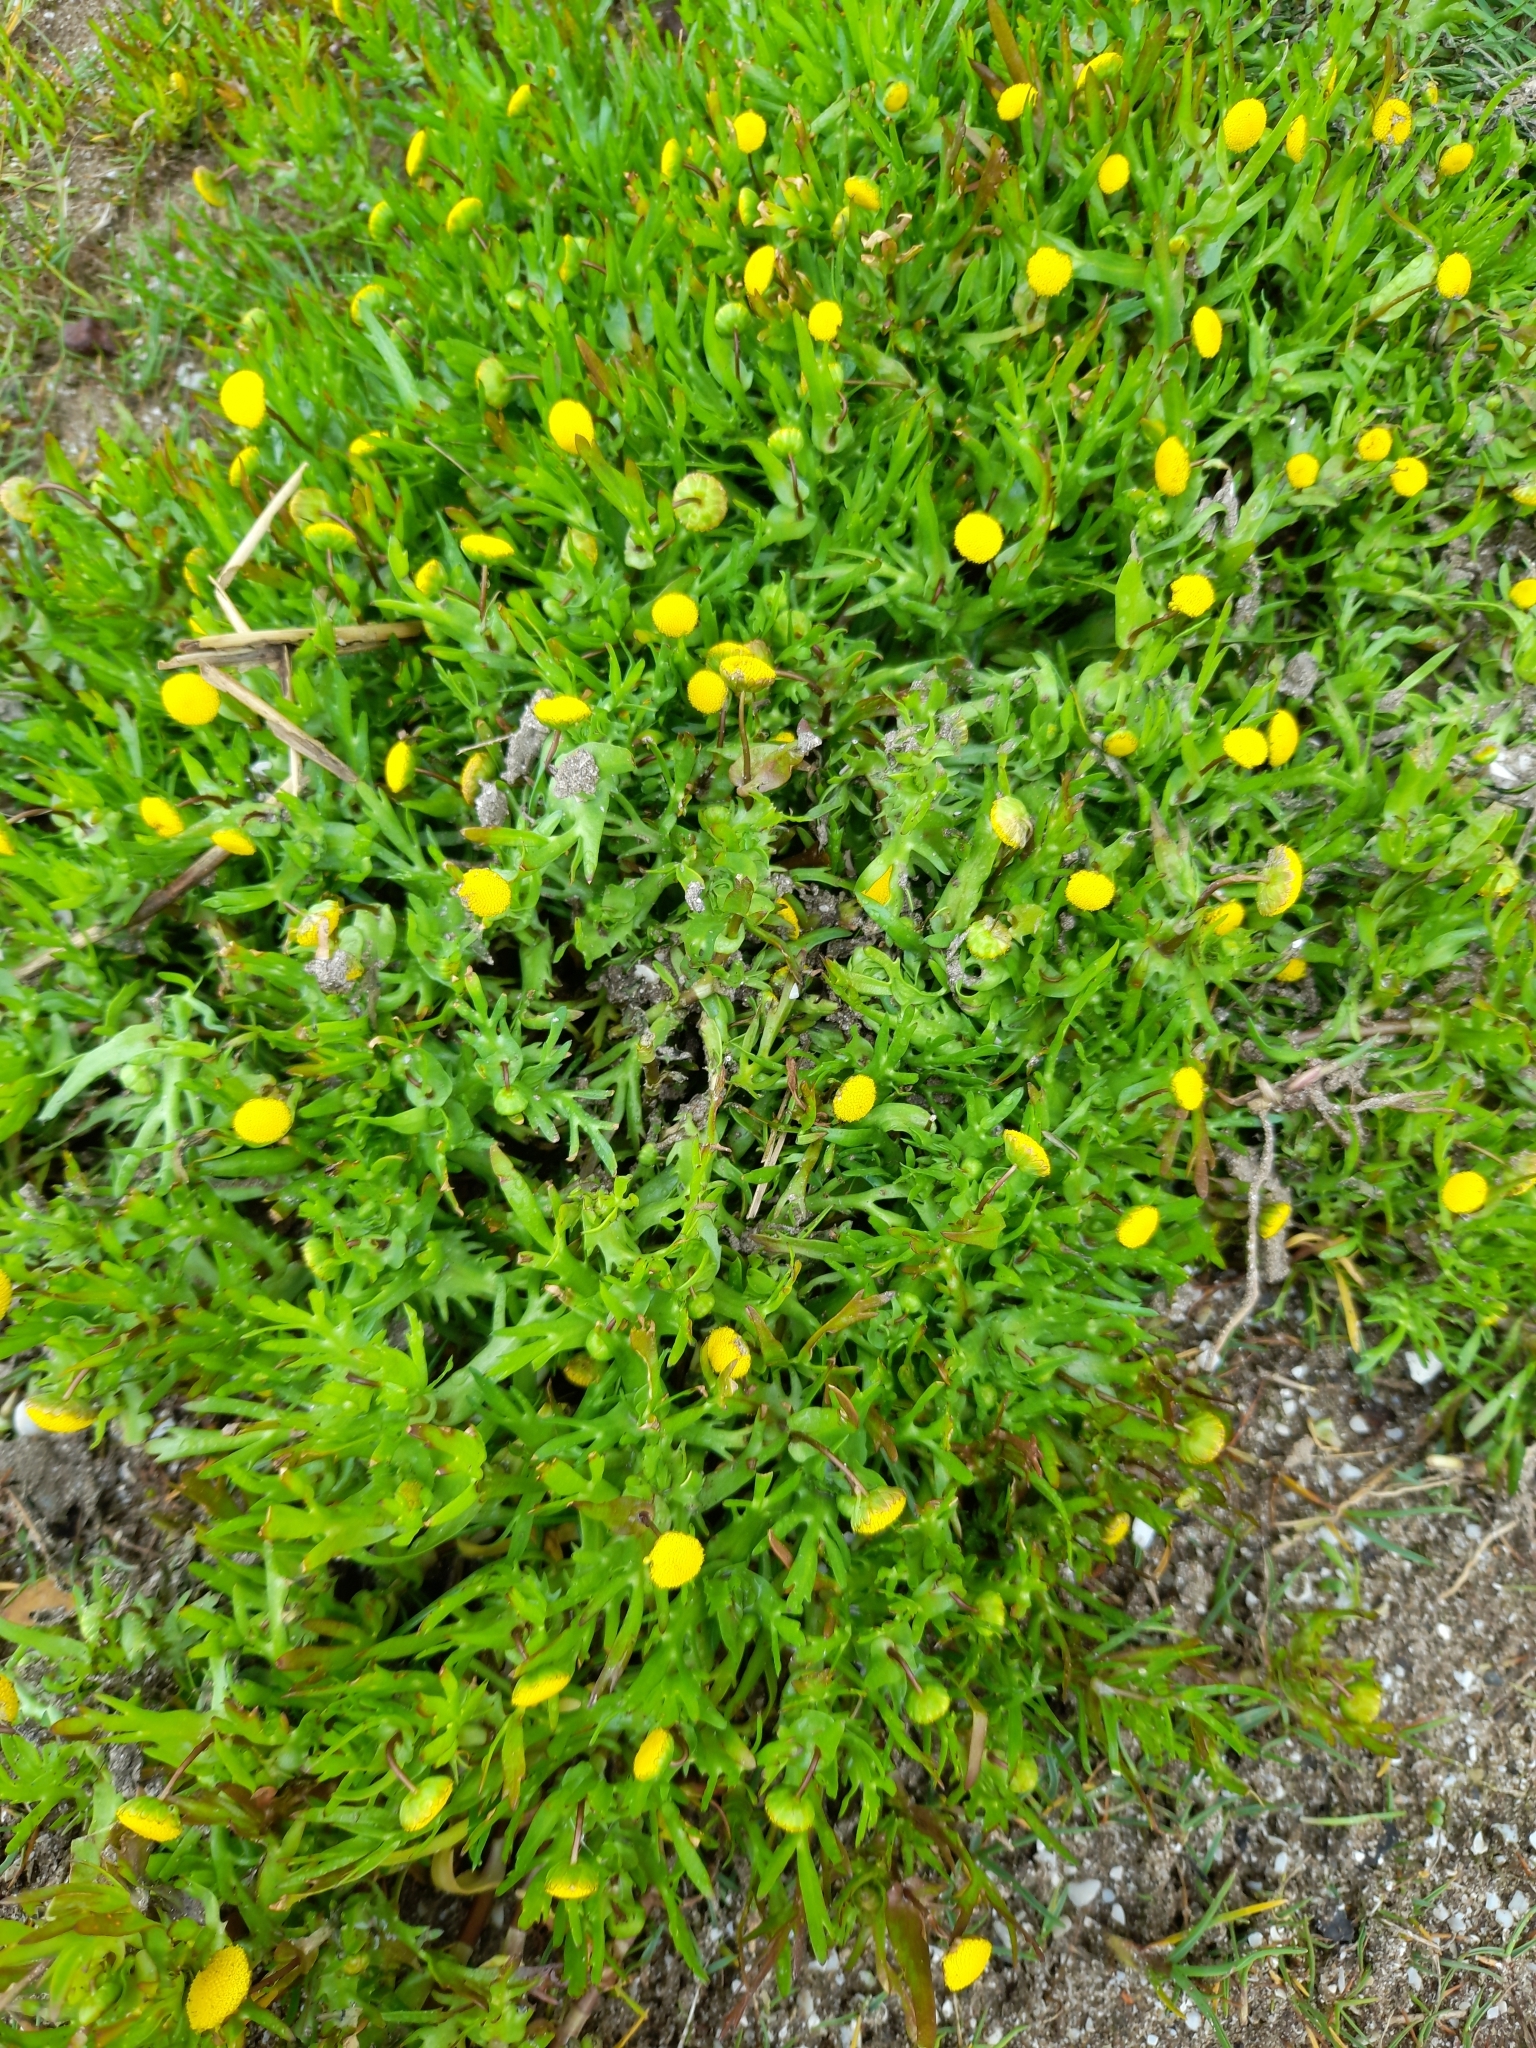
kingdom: Plantae
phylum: Tracheophyta
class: Magnoliopsida
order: Asterales
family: Asteraceae
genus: Cotula
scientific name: Cotula coronopifolia
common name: Buttonweed
